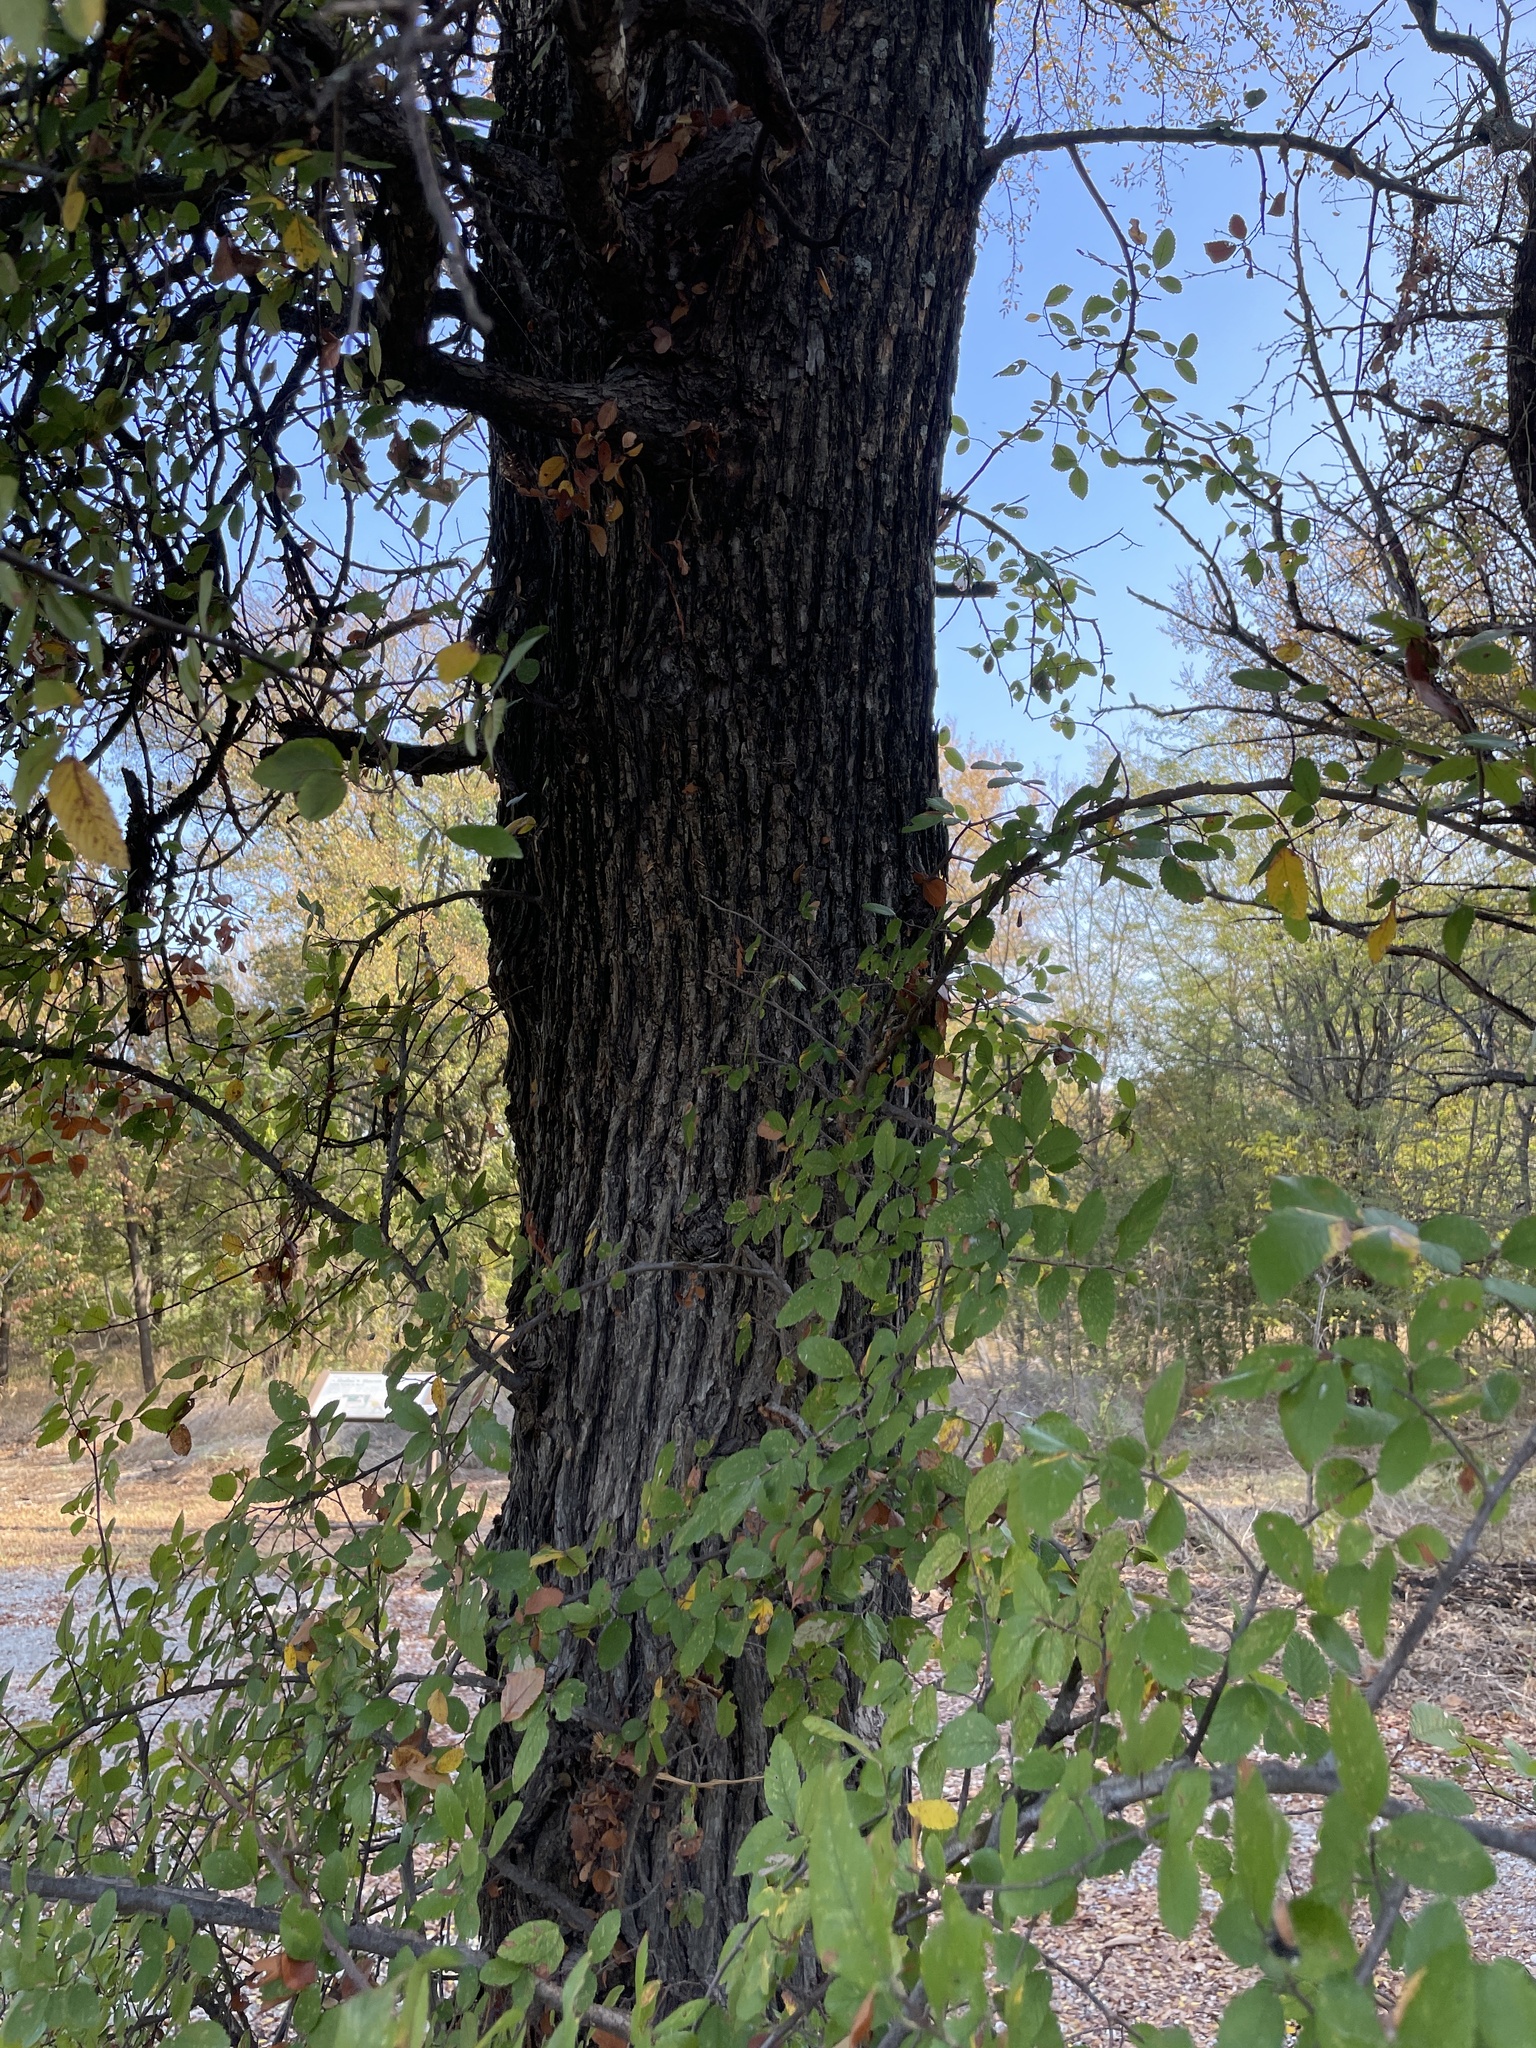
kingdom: Plantae
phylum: Tracheophyta
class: Magnoliopsida
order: Rosales
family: Ulmaceae
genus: Ulmus
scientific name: Ulmus crassifolia
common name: Basket elm
